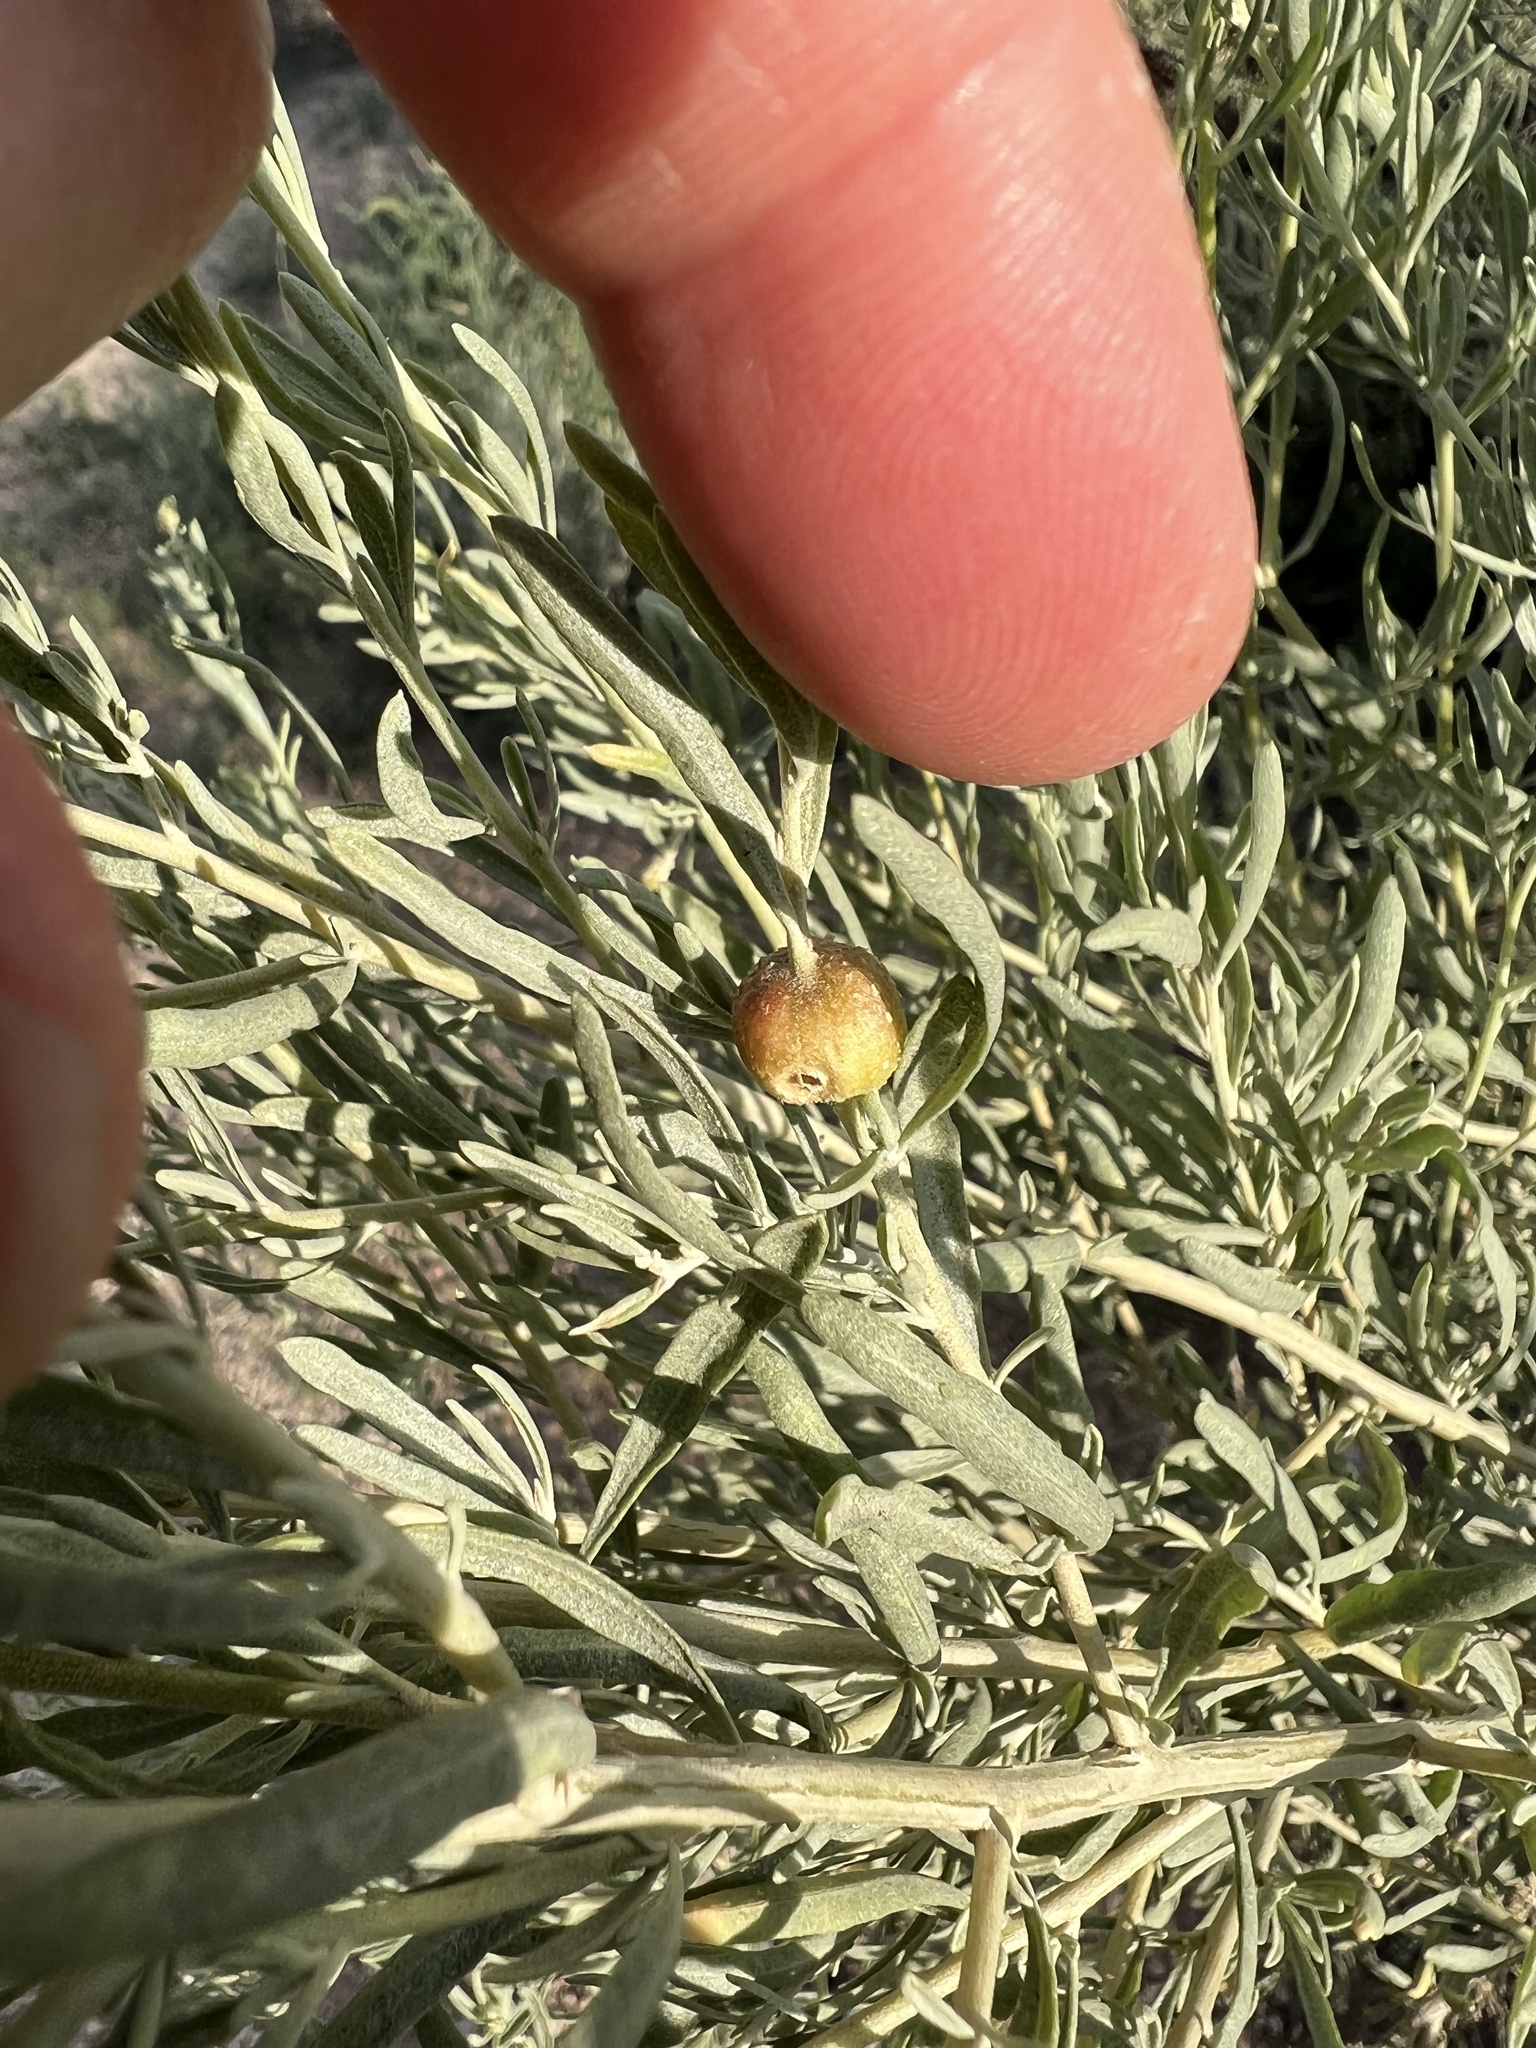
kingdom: Animalia
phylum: Arthropoda
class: Insecta
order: Diptera
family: Cecidomyiidae
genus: Asphondylia
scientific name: Asphondylia atriplicis
